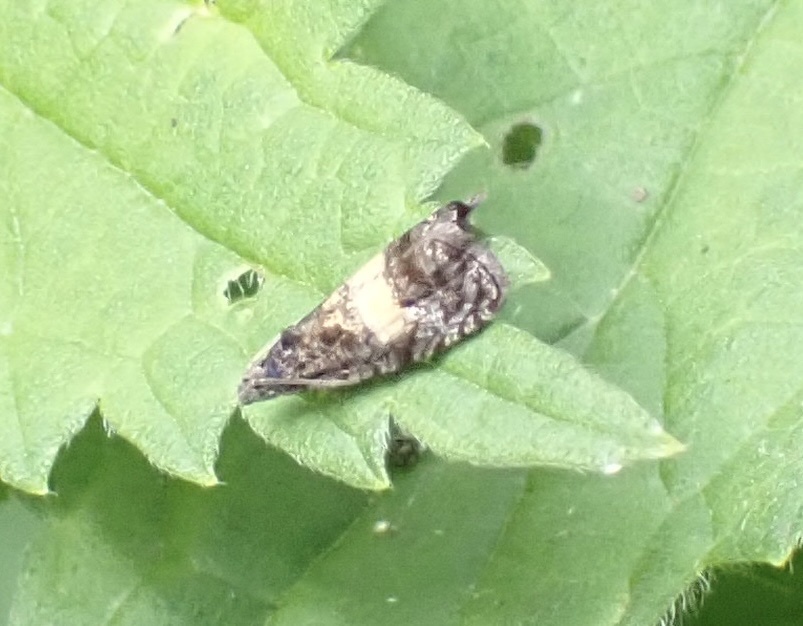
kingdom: Animalia
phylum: Arthropoda
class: Insecta
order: Lepidoptera
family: Tortricidae
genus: Endothenia
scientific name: Endothenia nigricostana
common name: Black-edged marble
